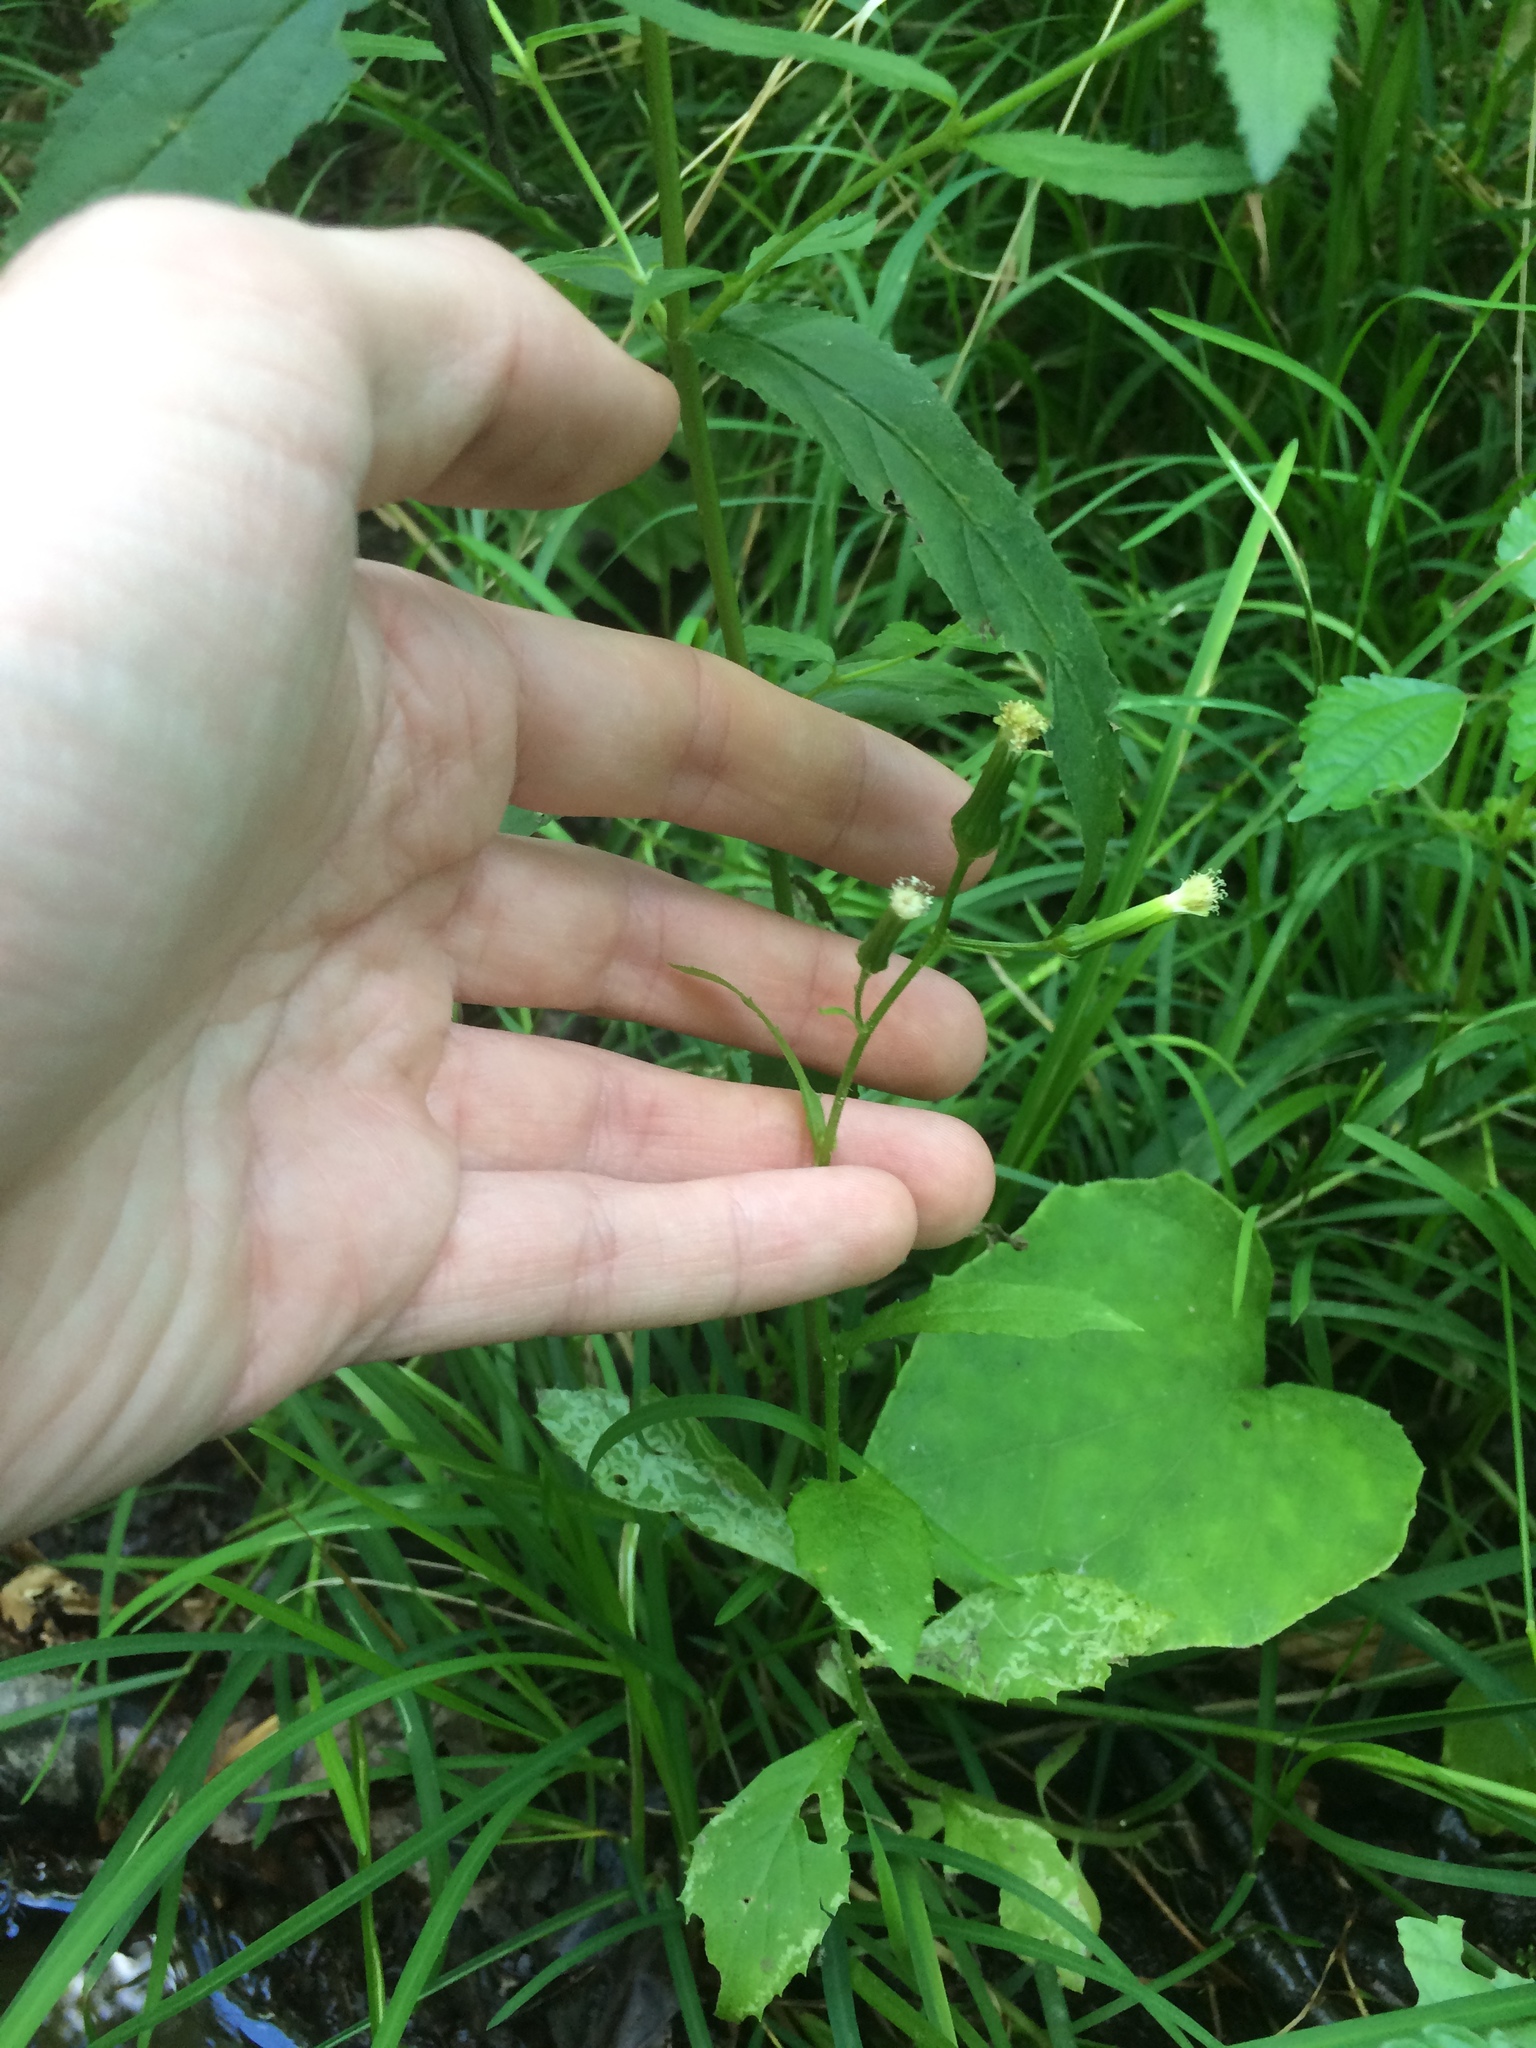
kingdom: Plantae
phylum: Tracheophyta
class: Magnoliopsida
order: Asterales
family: Asteraceae
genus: Erechtites
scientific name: Erechtites hieraciifolius
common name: American burnweed
